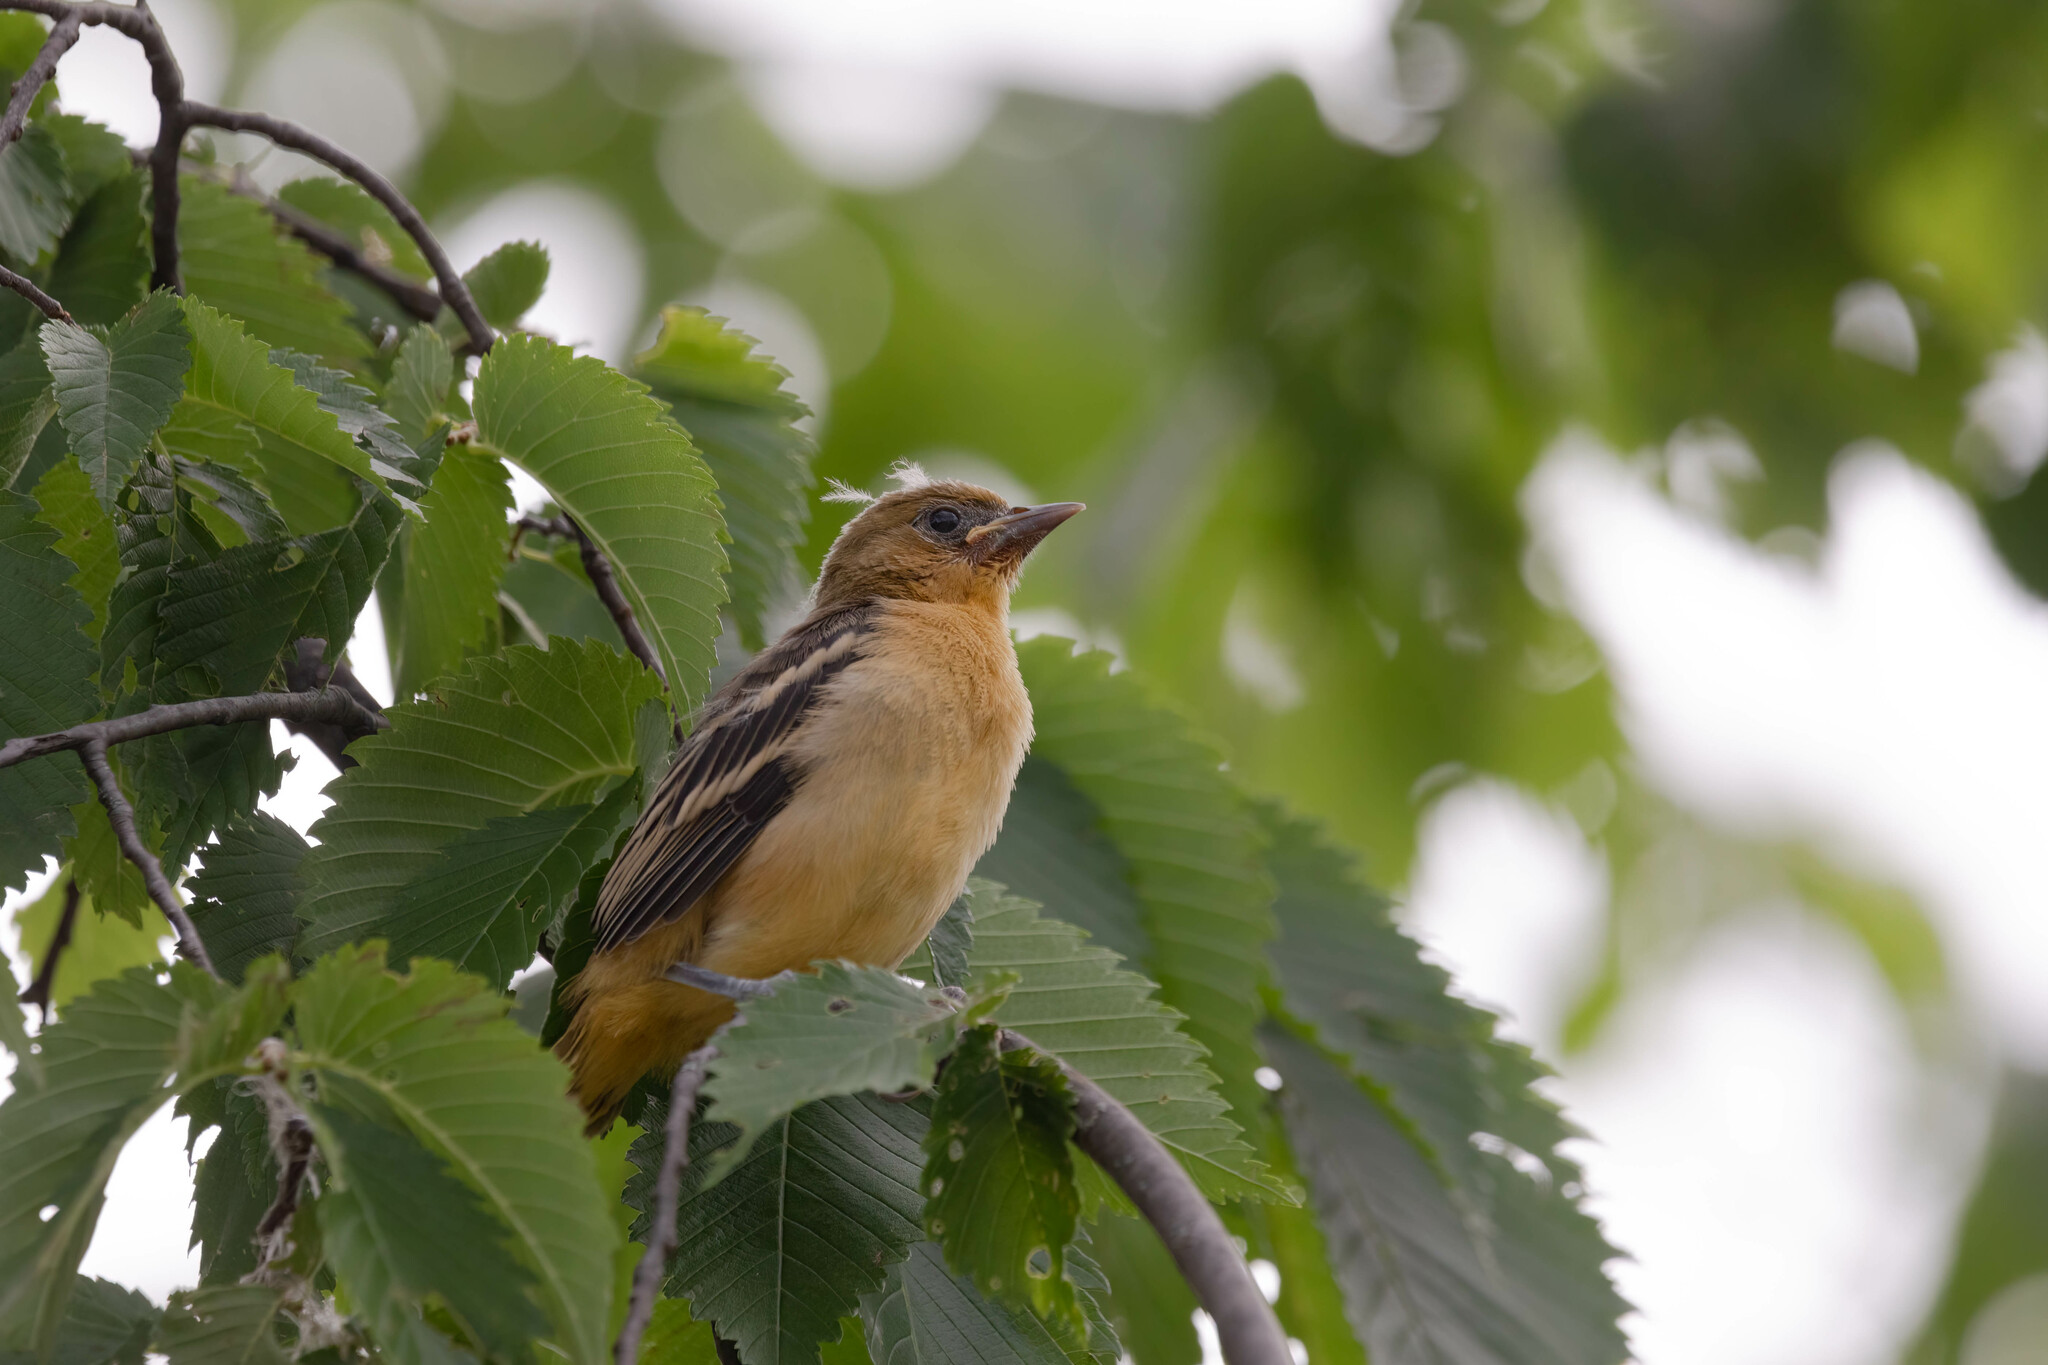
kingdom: Animalia
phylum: Chordata
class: Aves
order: Passeriformes
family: Icteridae
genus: Icterus
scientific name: Icterus galbula
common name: Baltimore oriole
